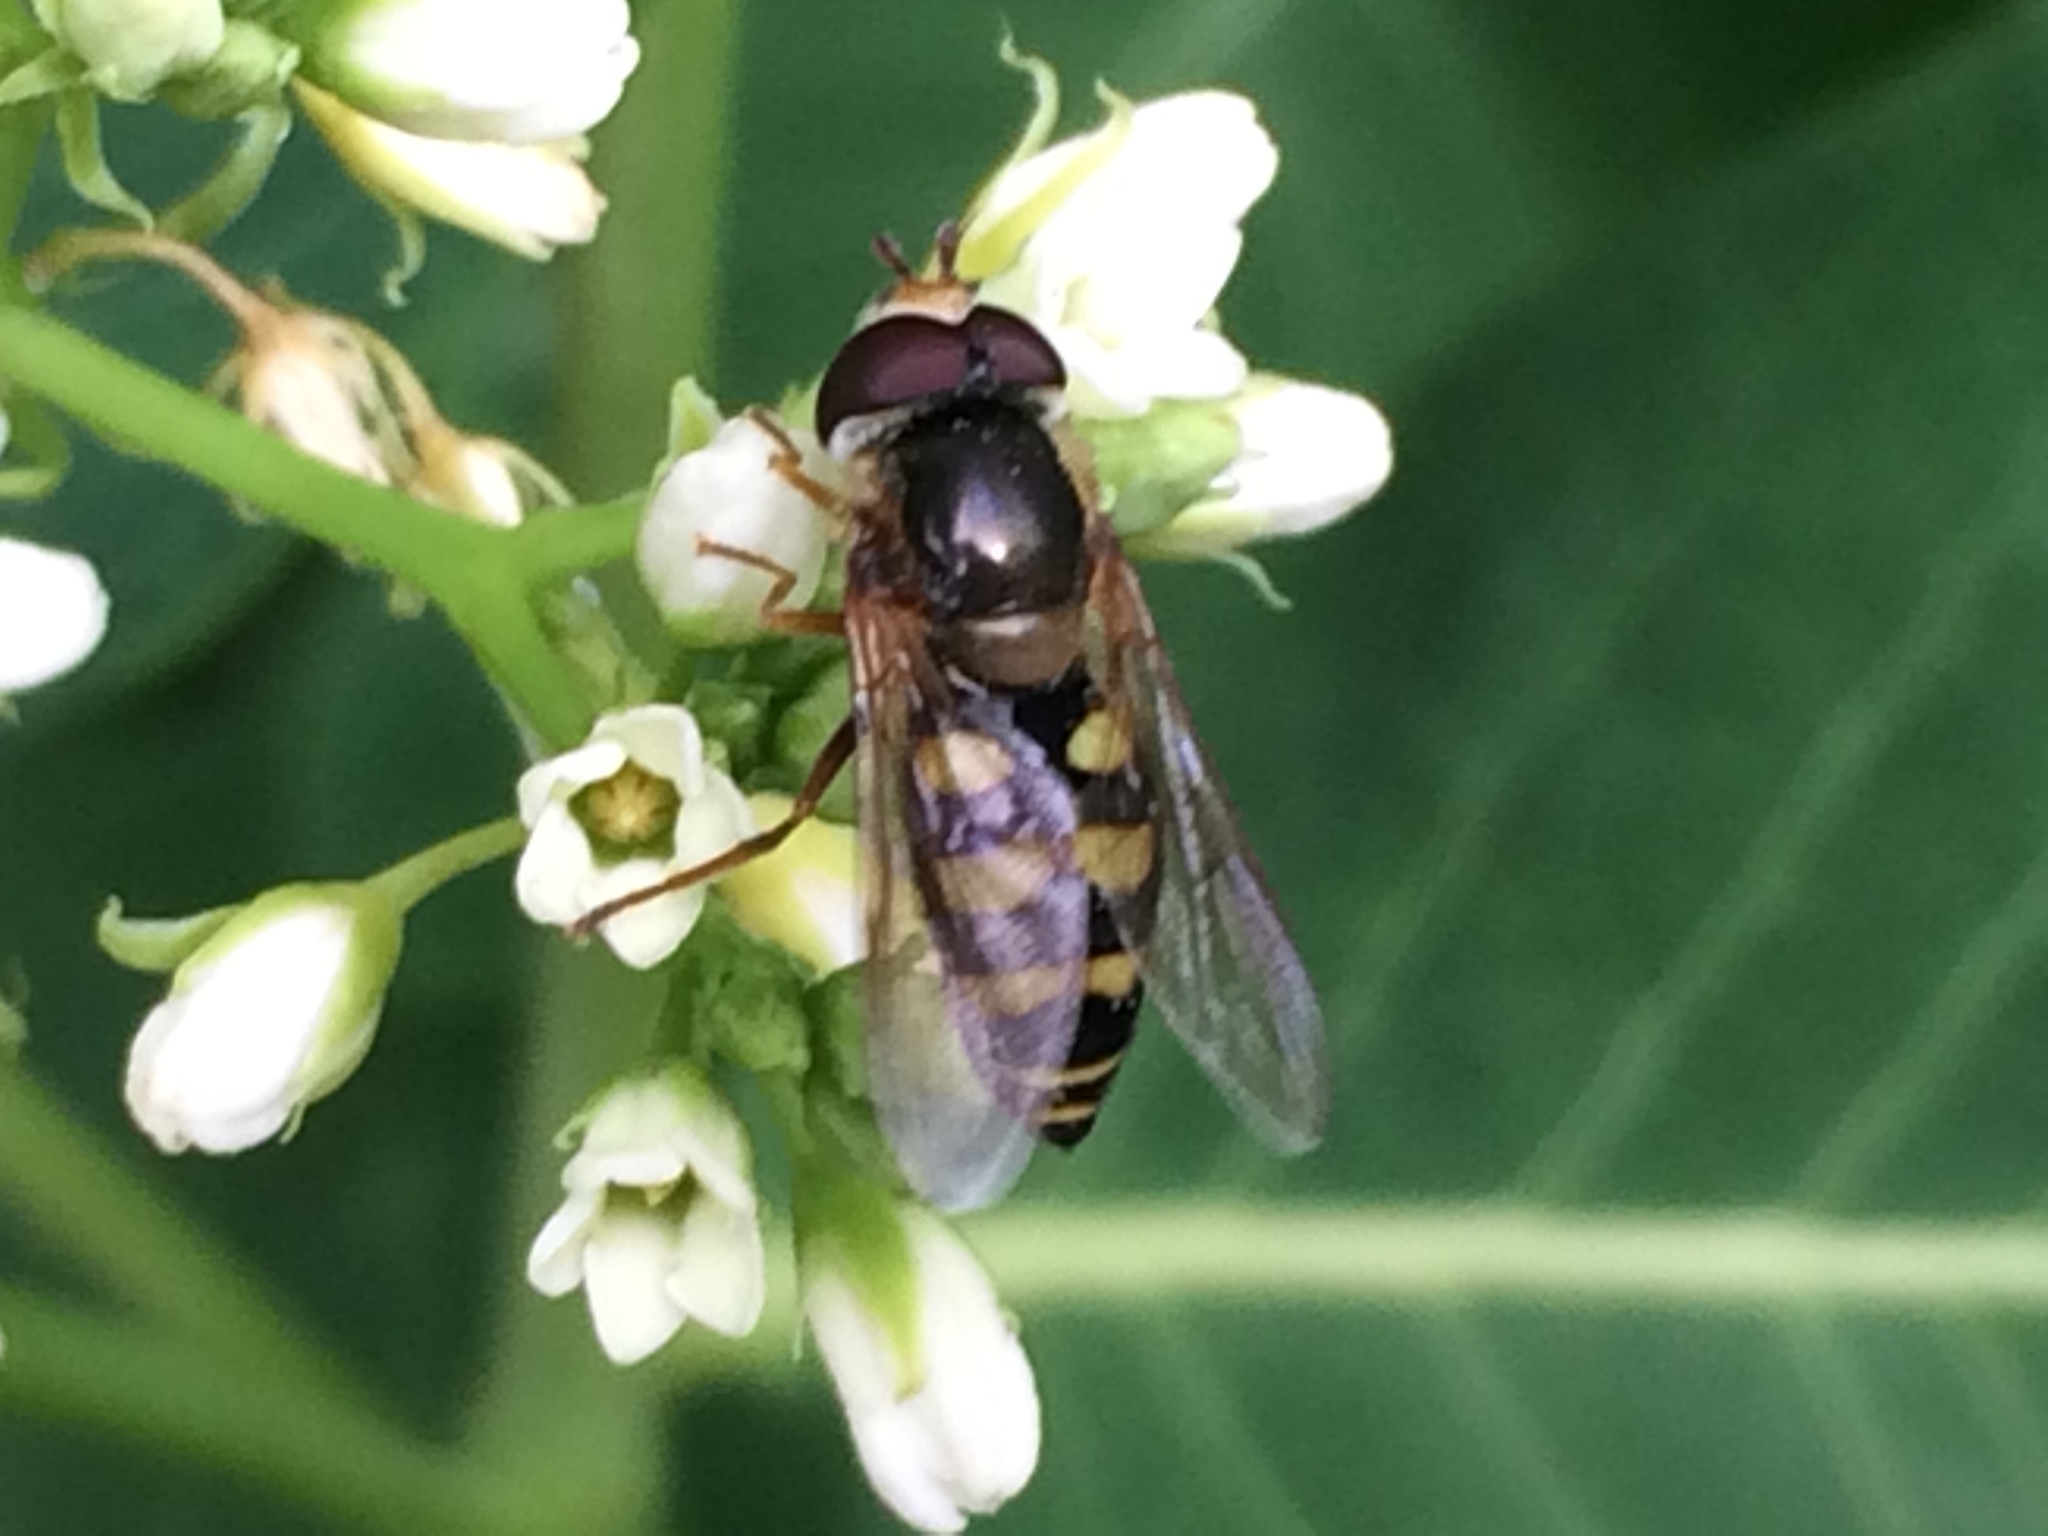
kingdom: Animalia
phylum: Arthropoda
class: Insecta
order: Diptera
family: Syrphidae
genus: Eupeodes
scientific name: Eupeodes fumipennis
